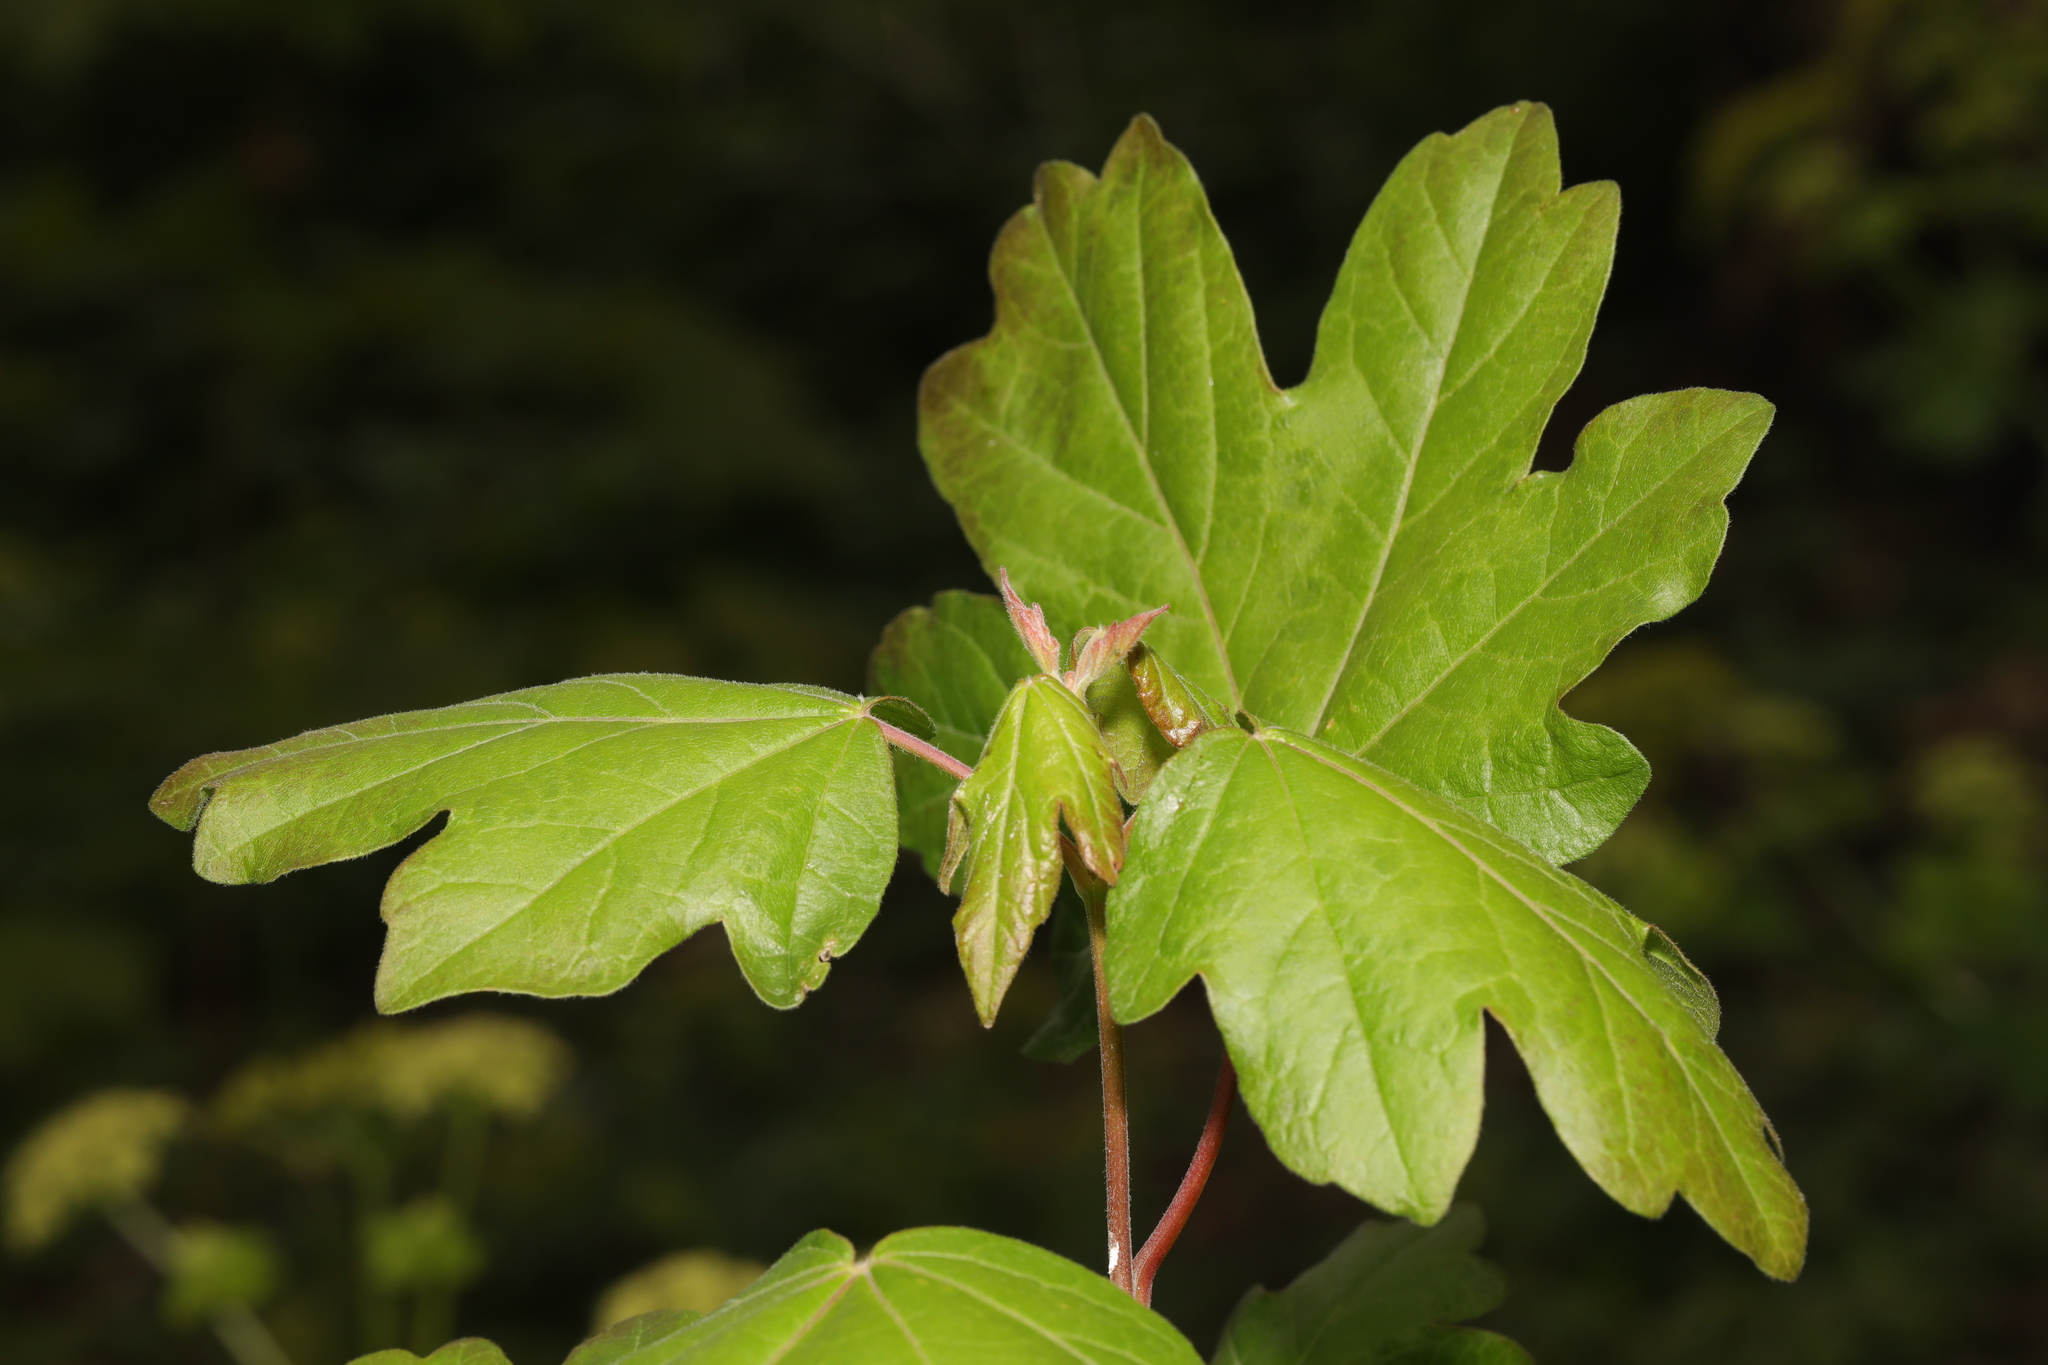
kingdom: Plantae
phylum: Tracheophyta
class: Magnoliopsida
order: Sapindales
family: Sapindaceae
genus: Acer
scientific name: Acer campestre
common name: Field maple
